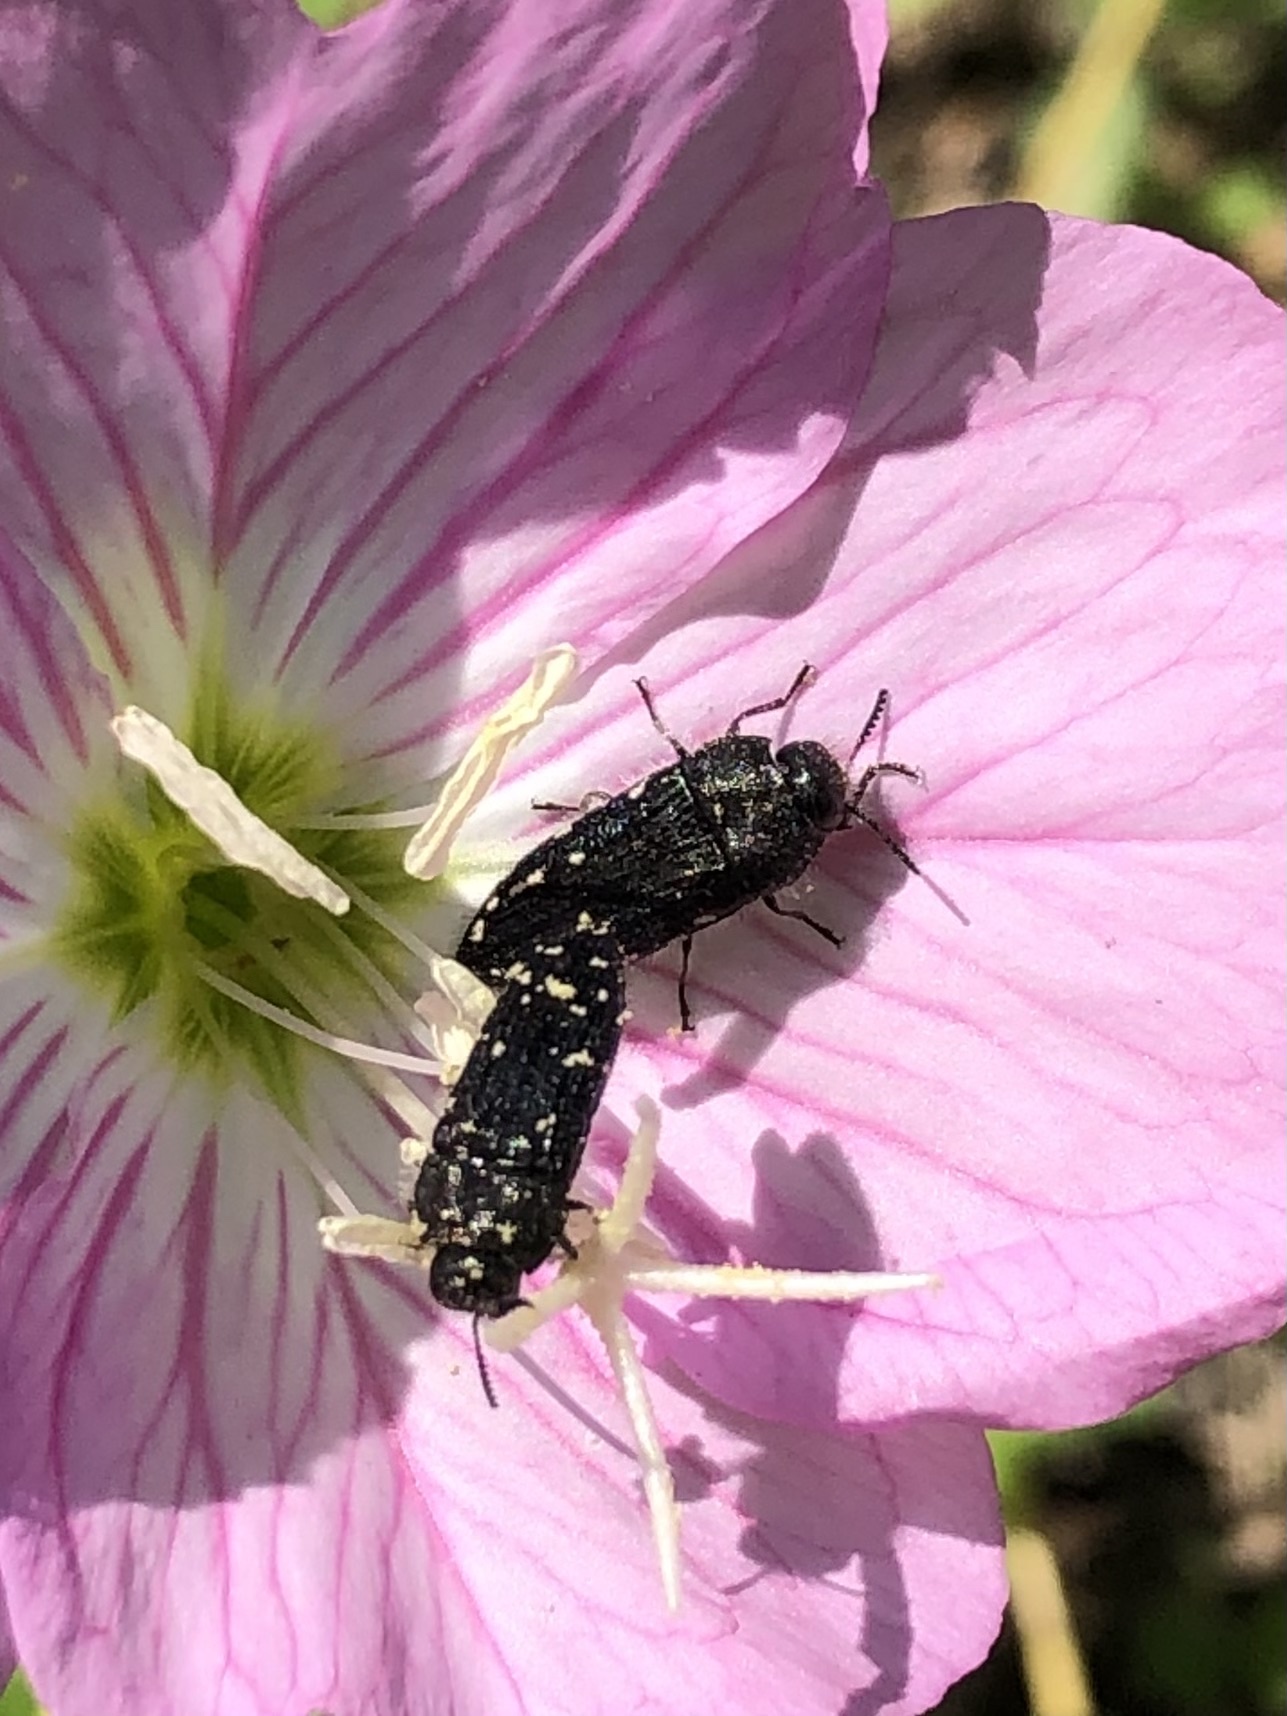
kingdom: Animalia
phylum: Arthropoda
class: Insecta
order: Coleoptera
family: Buprestidae
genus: Acmaeodera
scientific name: Acmaeodera ornatoides
